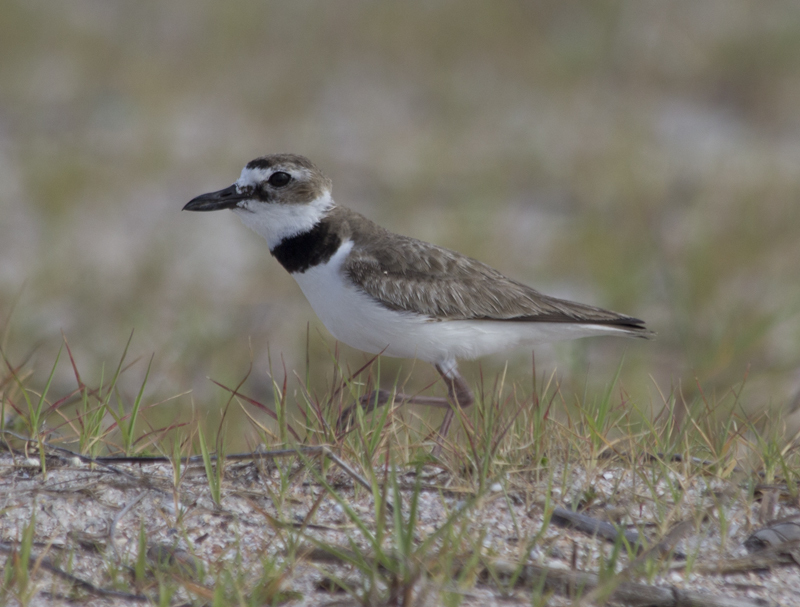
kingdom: Animalia
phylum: Chordata
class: Aves
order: Charadriiformes
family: Charadriidae
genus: Anarhynchus
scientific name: Anarhynchus
